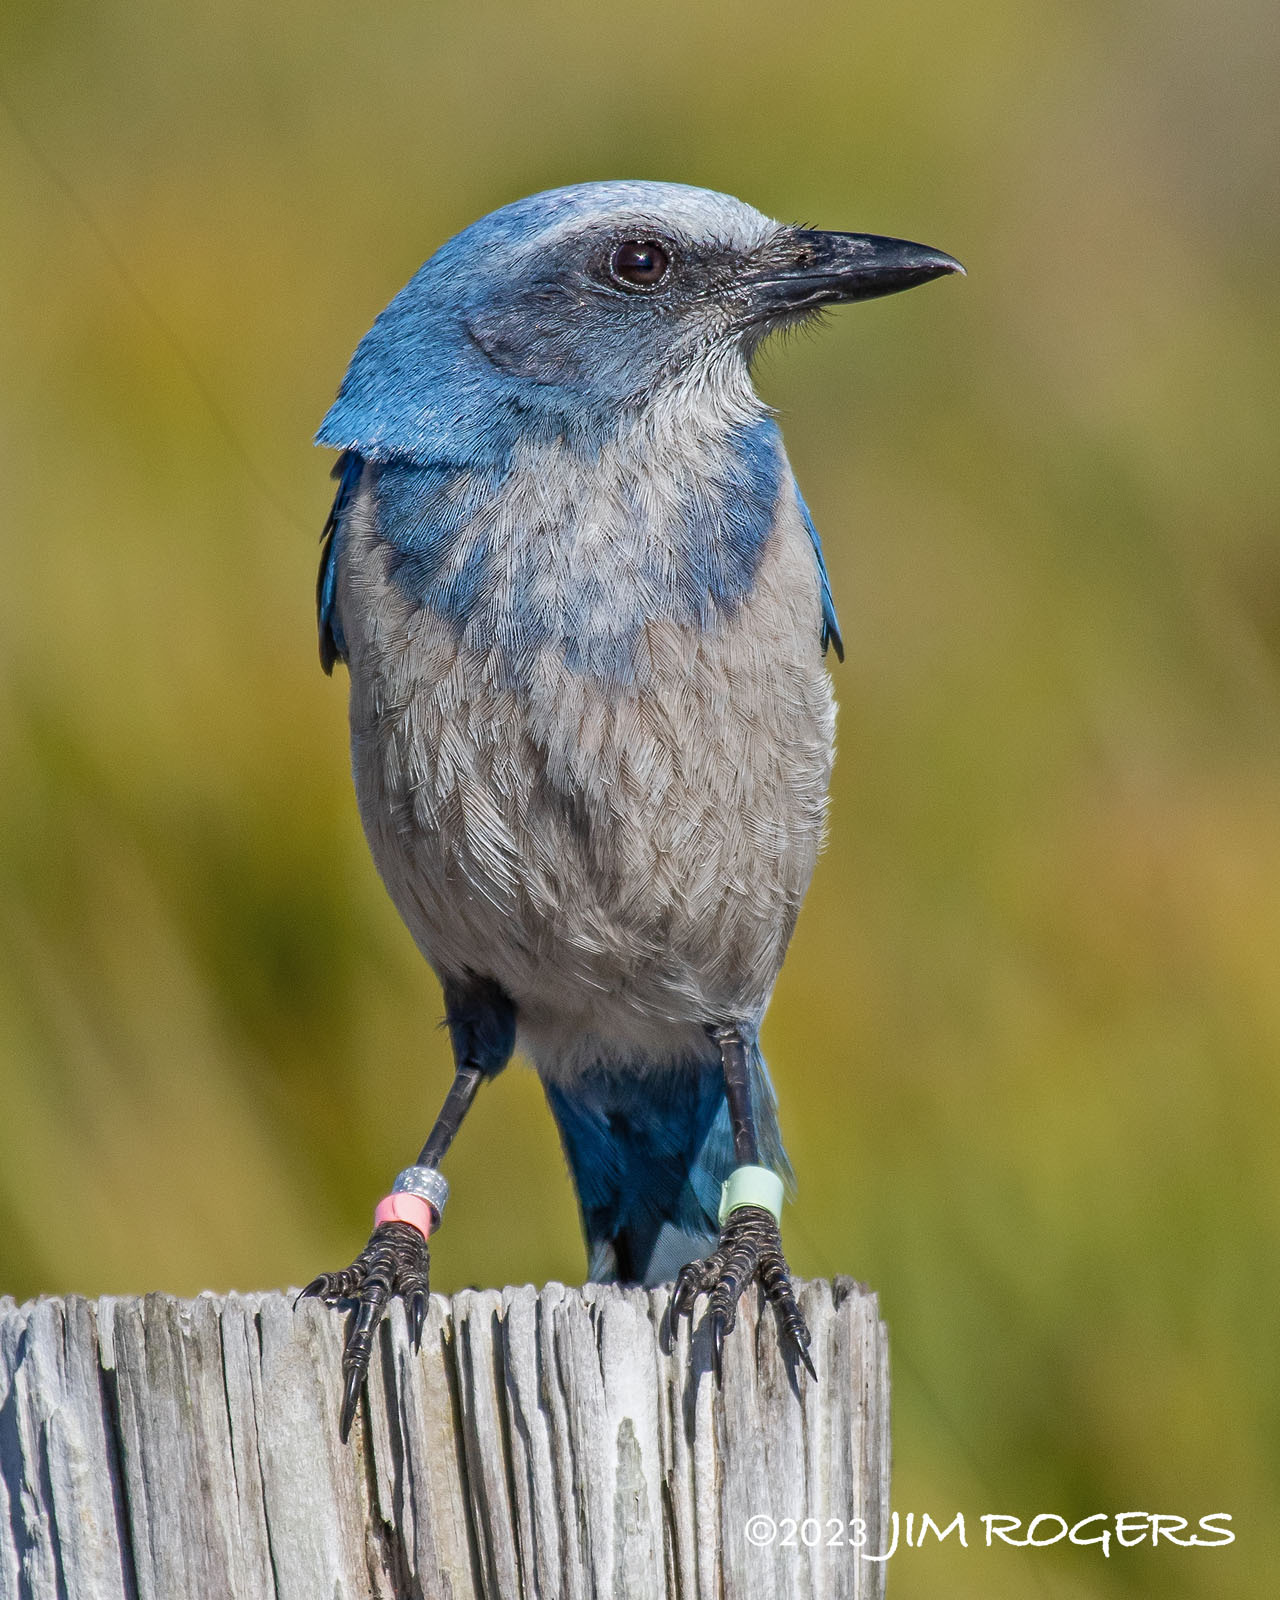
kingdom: Animalia
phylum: Chordata
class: Aves
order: Passeriformes
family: Corvidae
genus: Aphelocoma
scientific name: Aphelocoma coerulescens
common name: Florida scrub jay
